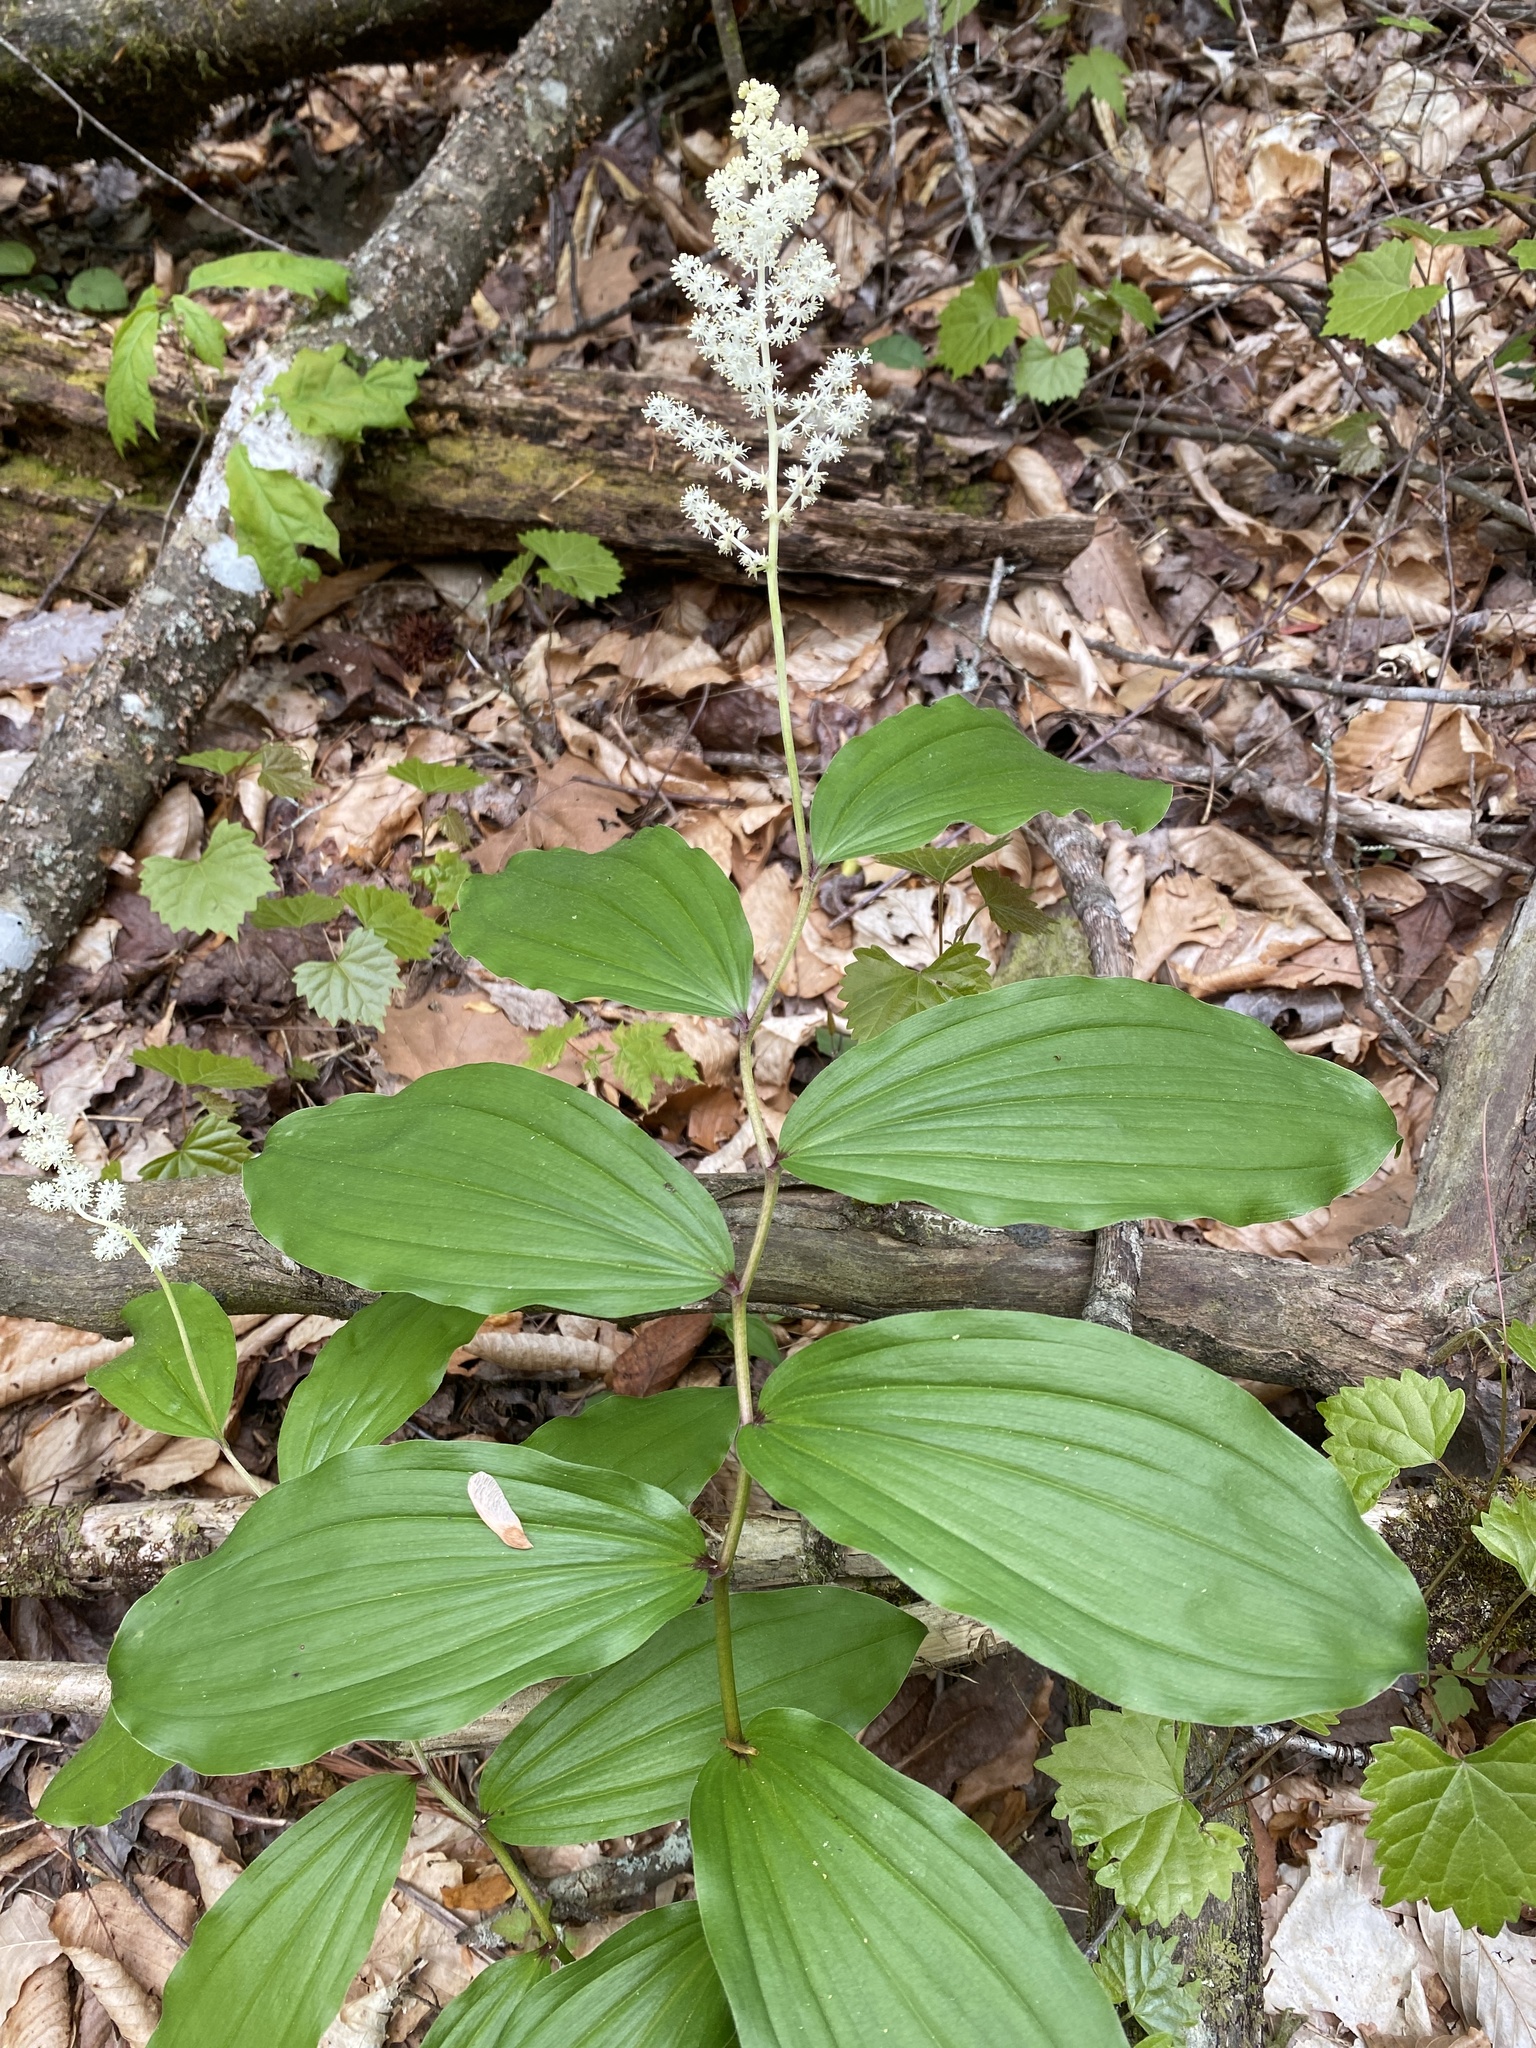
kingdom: Plantae
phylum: Tracheophyta
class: Liliopsida
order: Asparagales
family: Asparagaceae
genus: Maianthemum
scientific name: Maianthemum racemosum
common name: False spikenard
